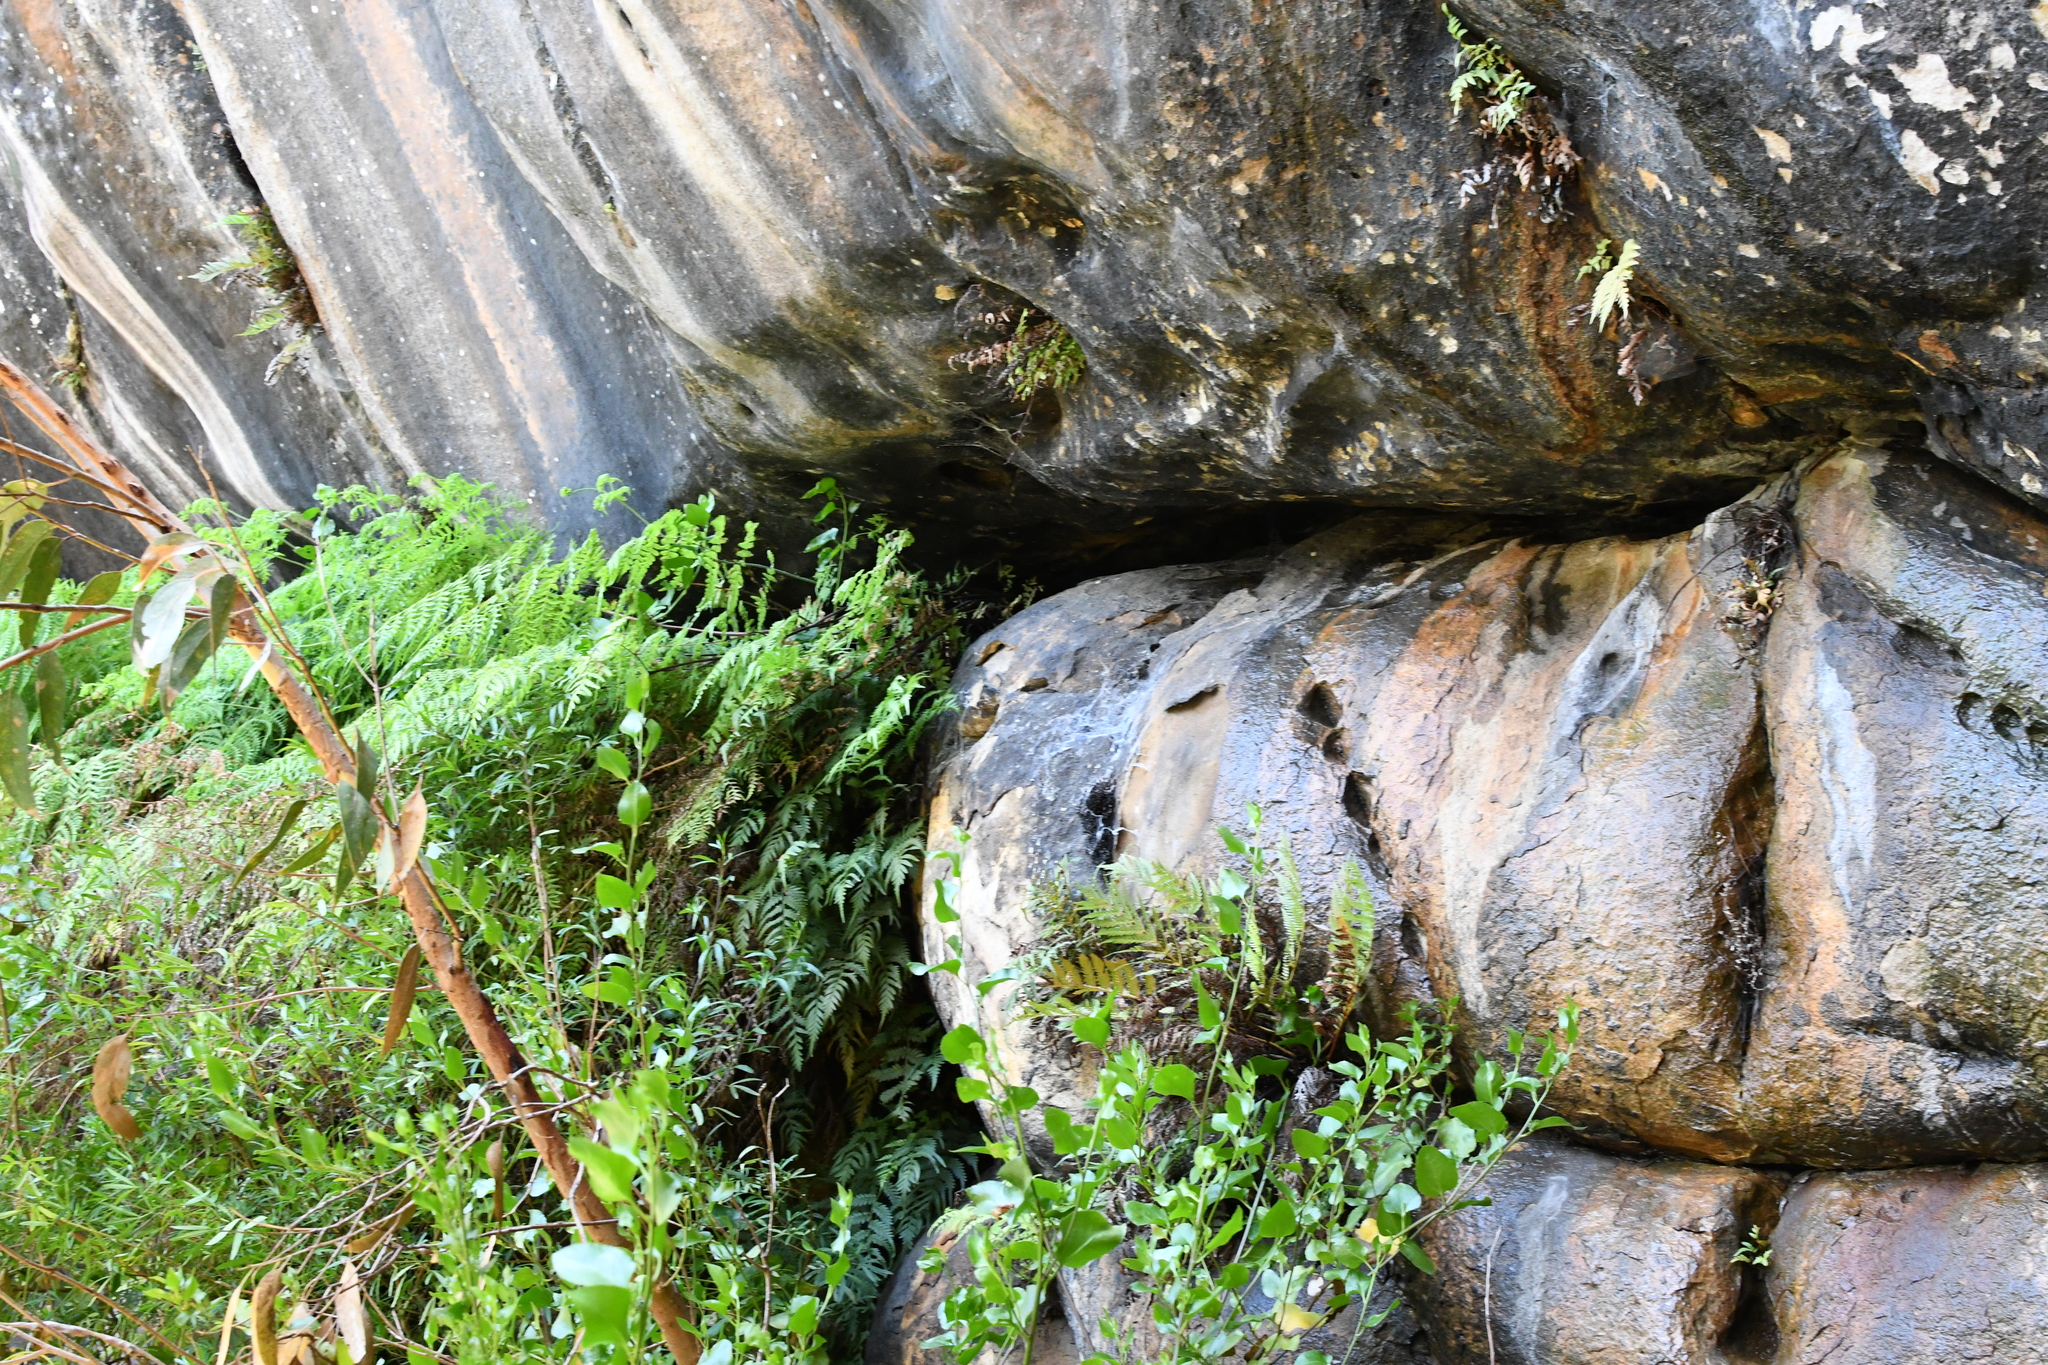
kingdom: Plantae
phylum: Tracheophyta
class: Polypodiopsida
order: Polypodiales
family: Dennstaedtiaceae
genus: Histiopteris
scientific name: Histiopteris incisa
